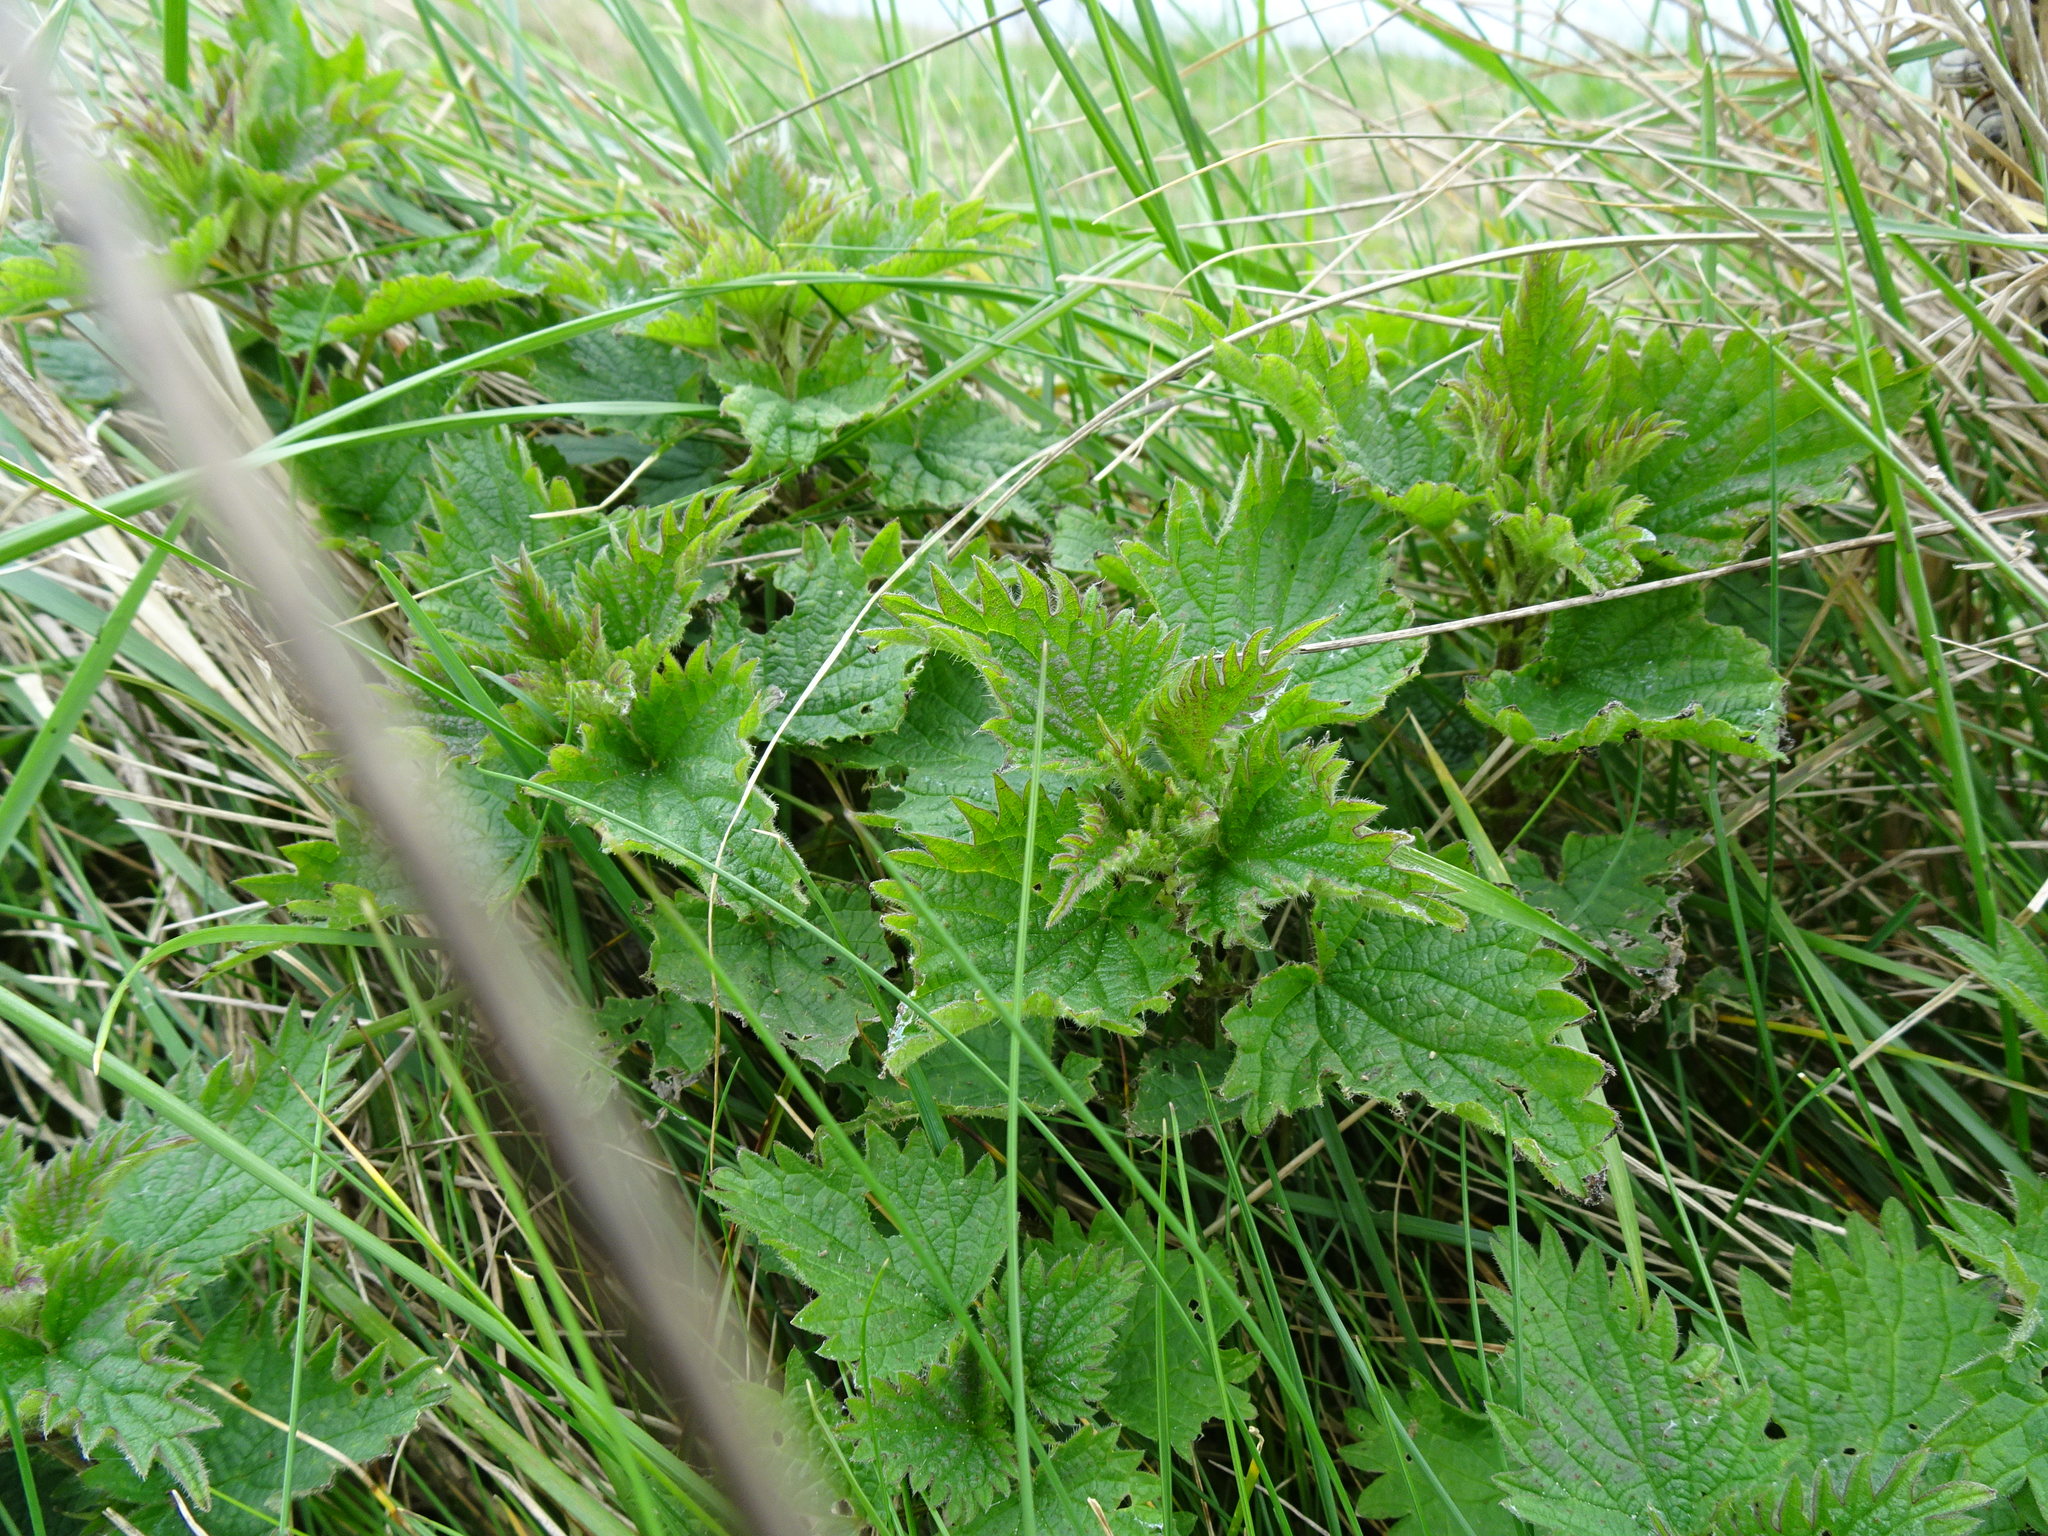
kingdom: Plantae
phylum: Tracheophyta
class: Magnoliopsida
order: Rosales
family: Urticaceae
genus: Urtica
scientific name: Urtica dioica
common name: Common nettle
